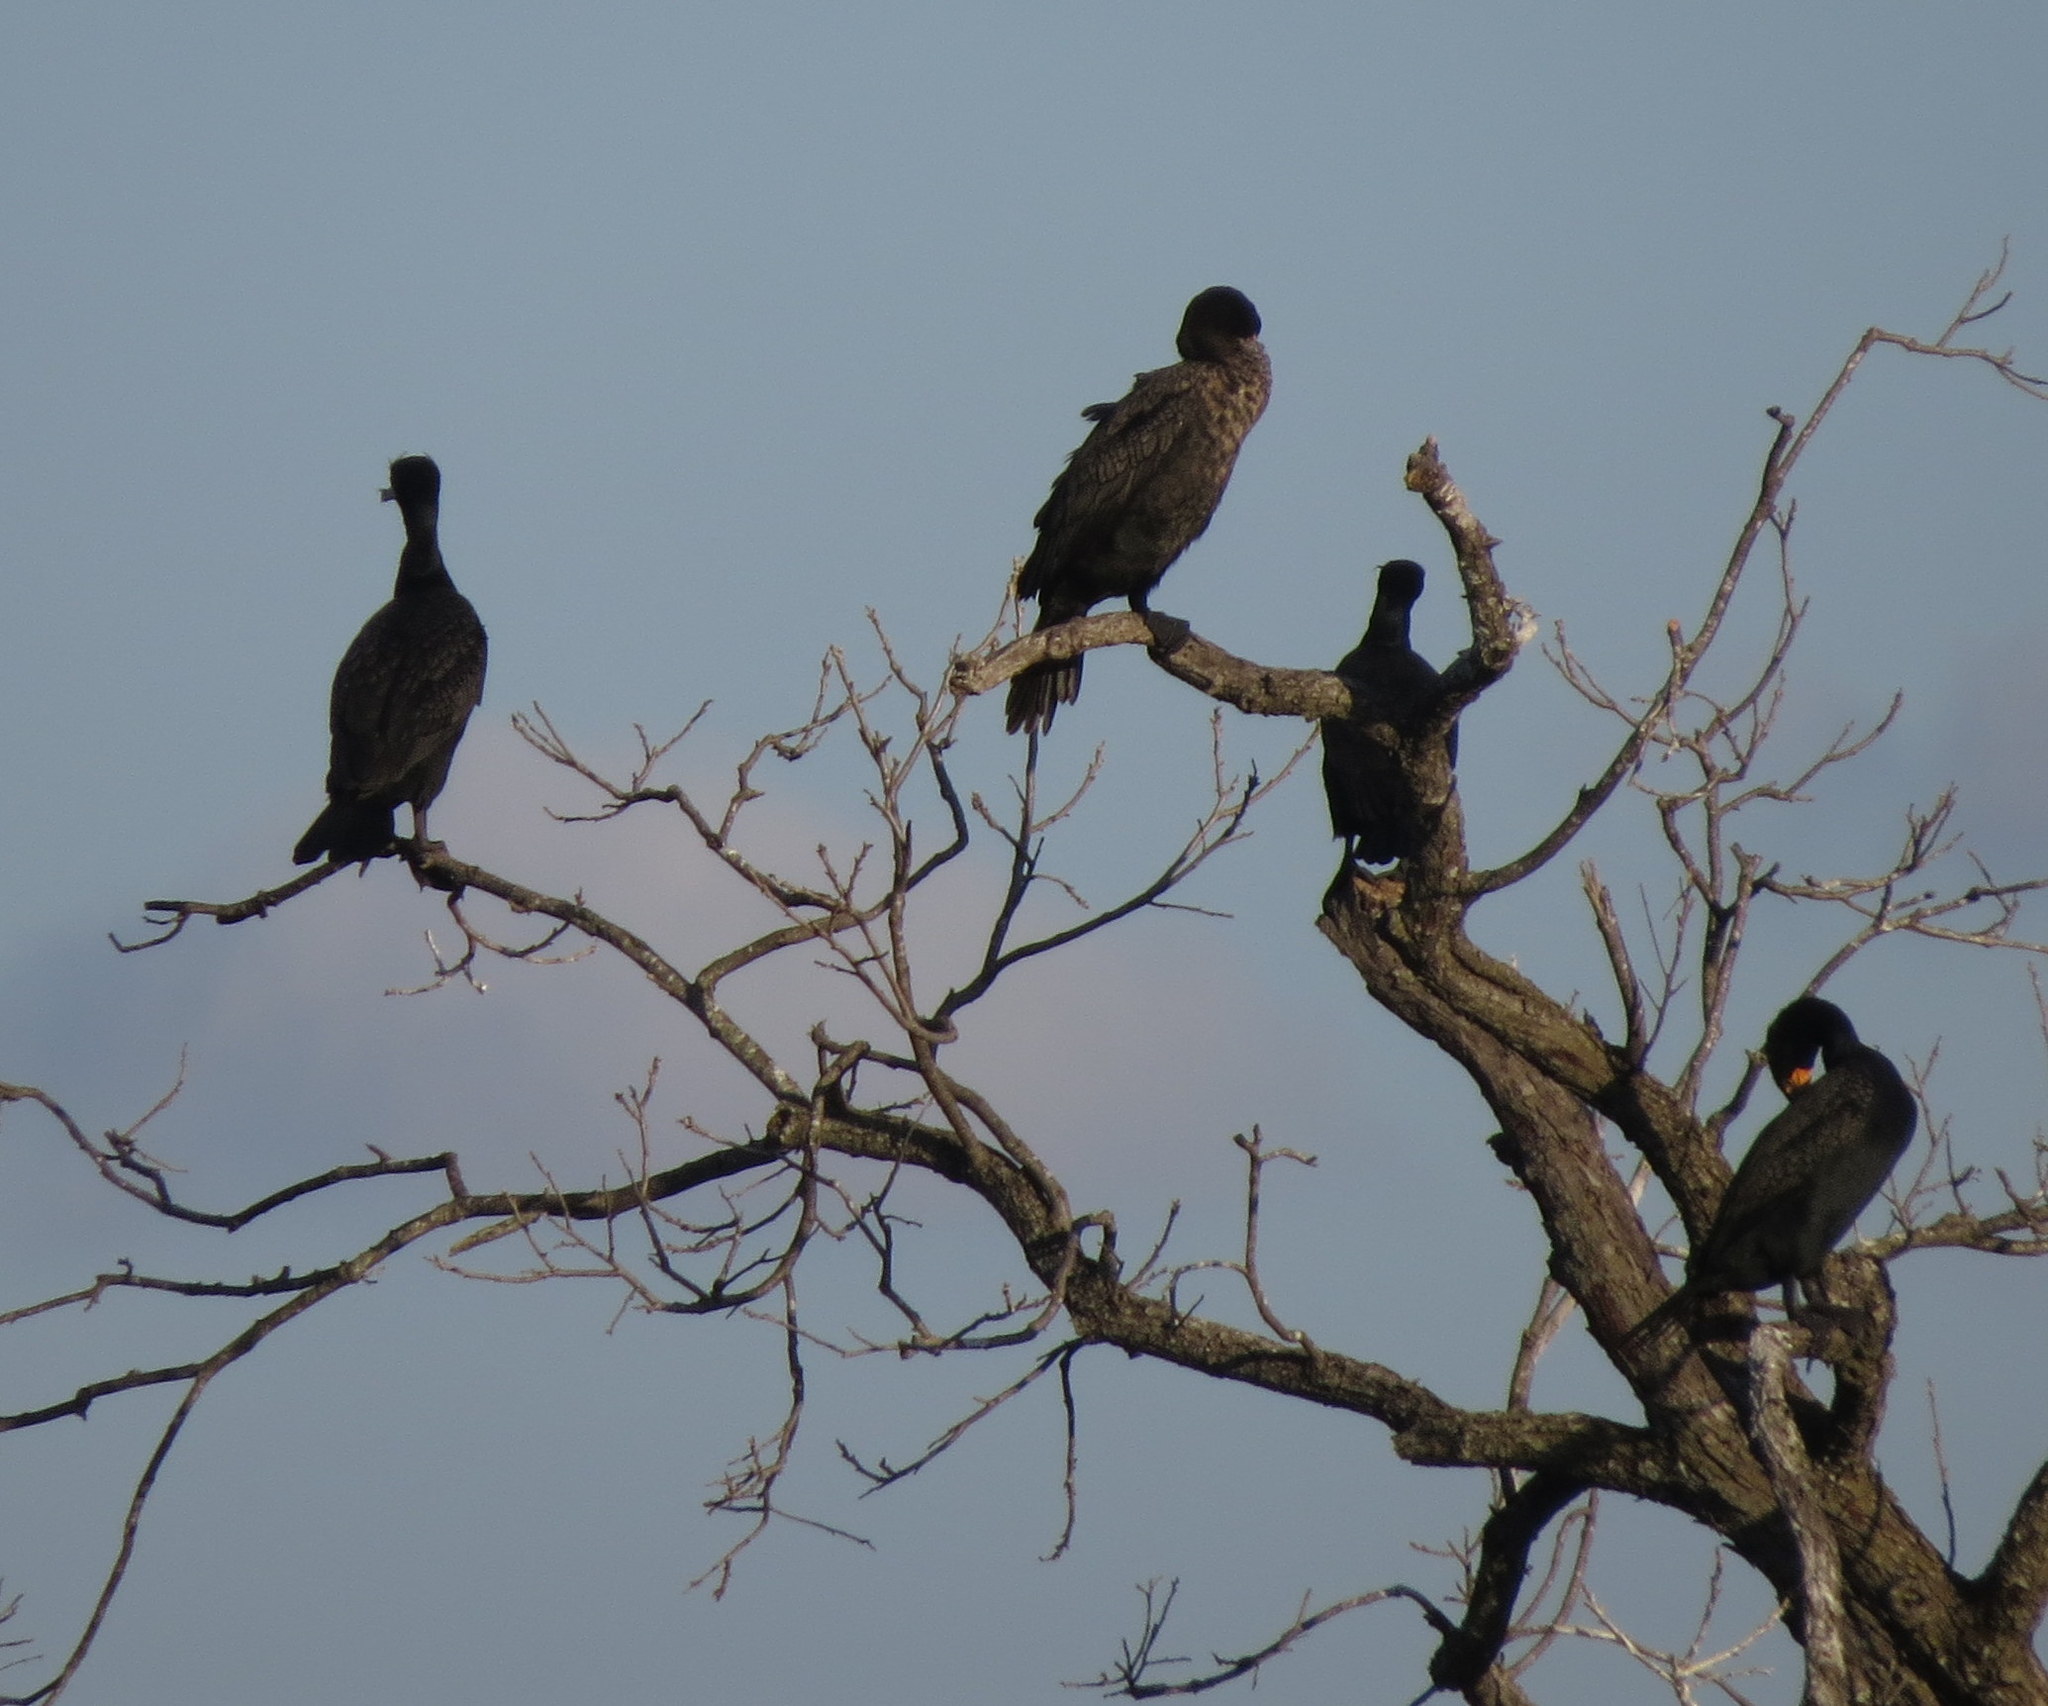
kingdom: Animalia
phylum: Chordata
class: Aves
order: Suliformes
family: Phalacrocoracidae
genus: Phalacrocorax
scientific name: Phalacrocorax auritus
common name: Double-crested cormorant
